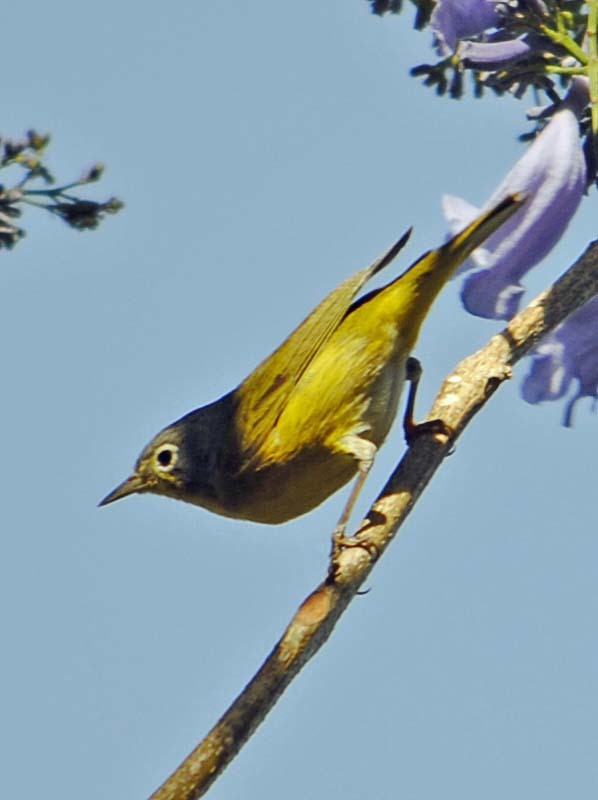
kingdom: Animalia
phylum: Chordata
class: Aves
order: Passeriformes
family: Parulidae
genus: Leiothlypis
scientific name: Leiothlypis ruficapilla
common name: Nashville warbler
